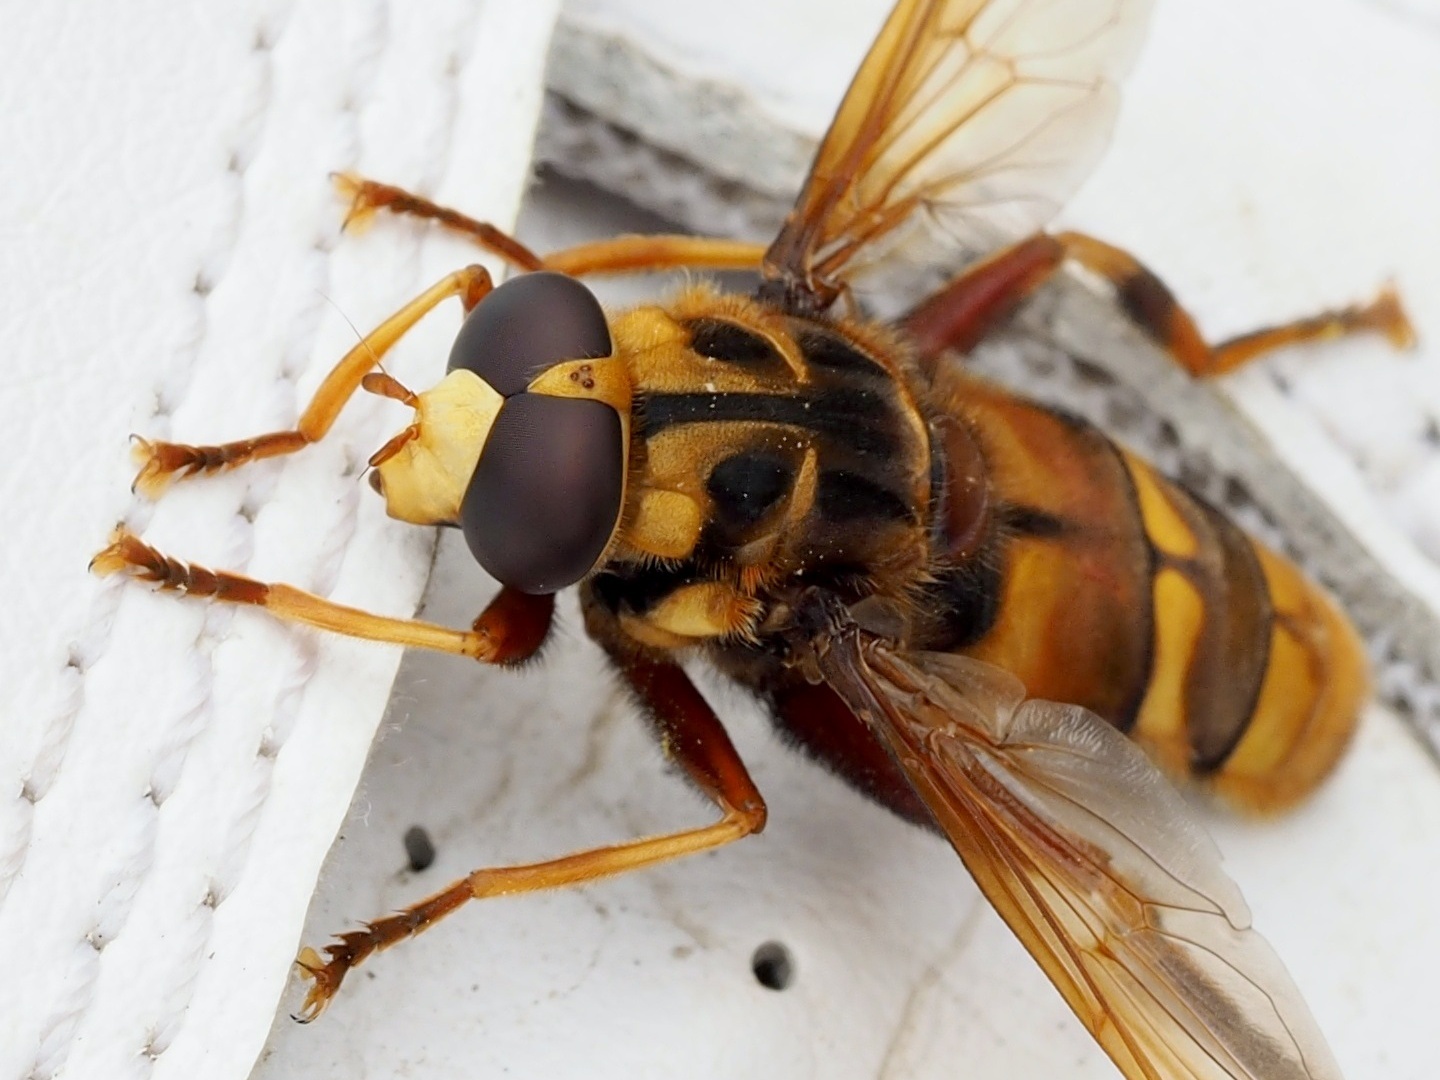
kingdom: Animalia
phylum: Arthropoda
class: Insecta
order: Diptera
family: Syrphidae
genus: Milesia
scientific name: Milesia crabroniformis
